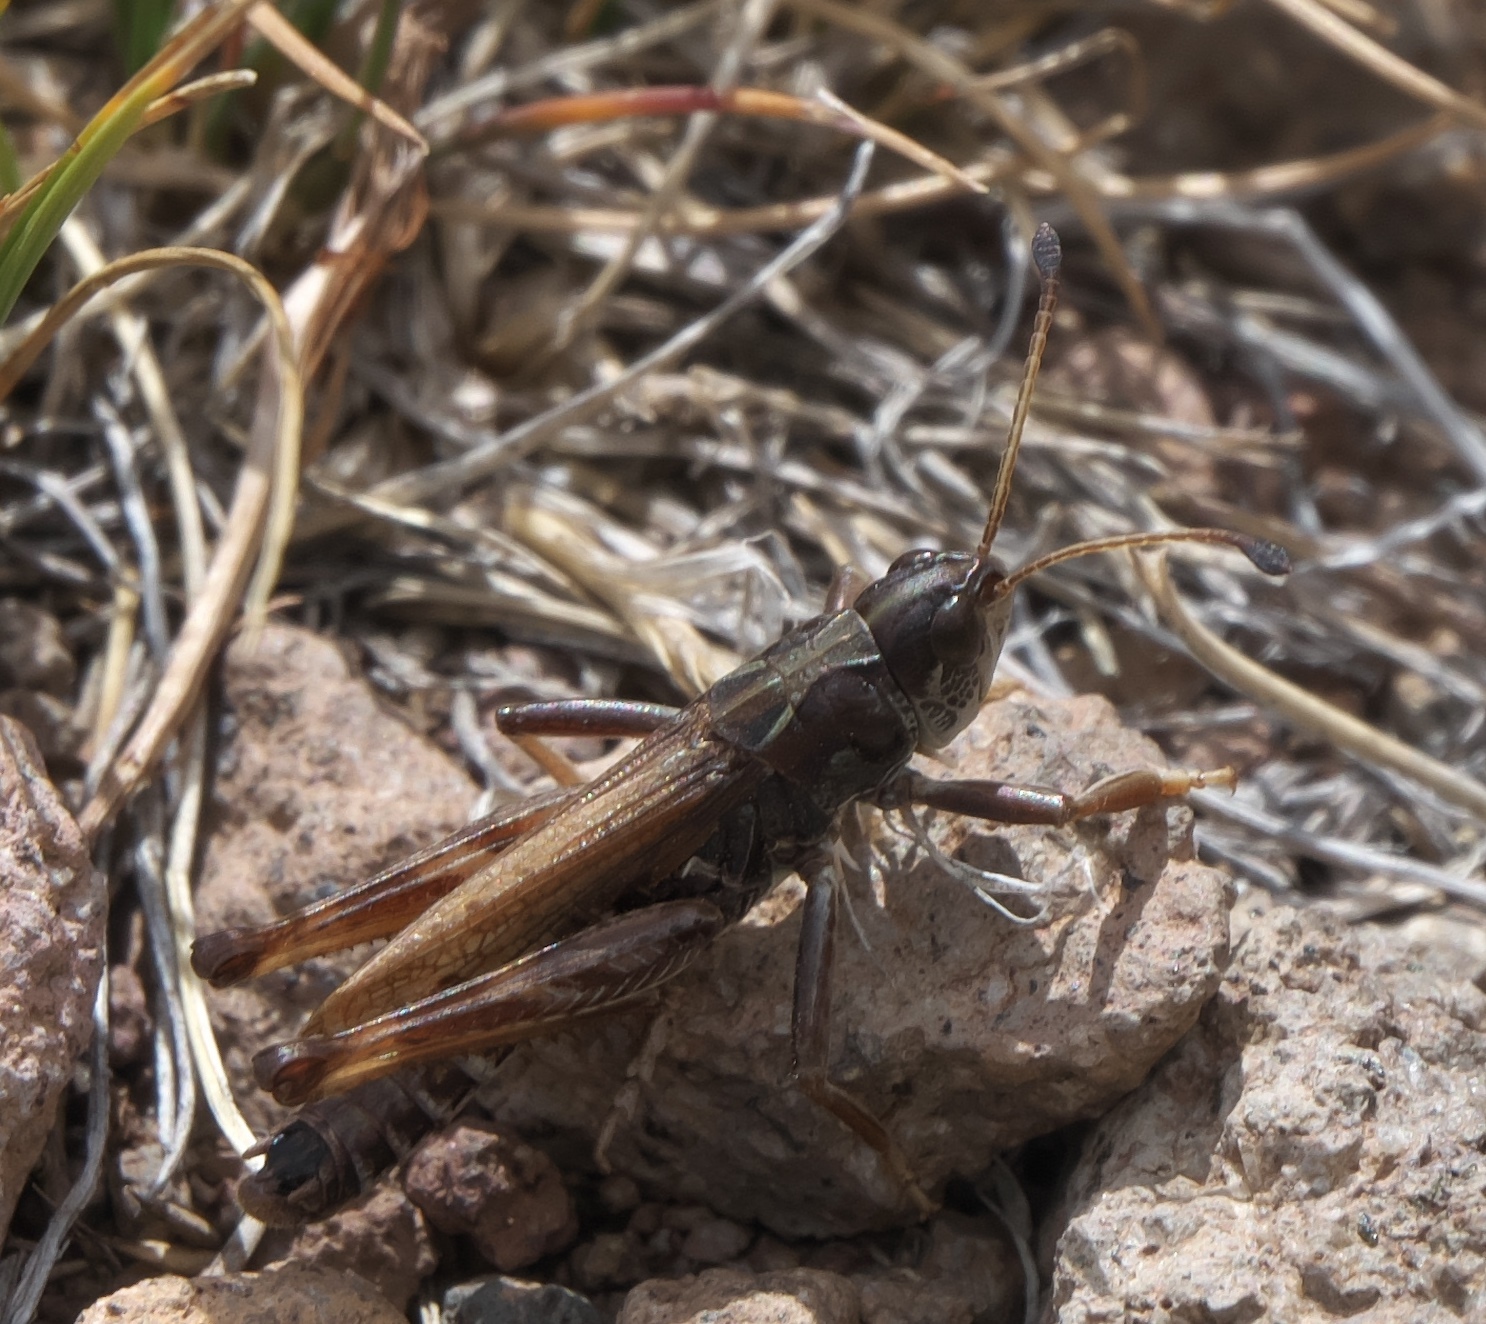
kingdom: Animalia
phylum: Arthropoda
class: Insecta
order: Orthoptera
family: Acrididae
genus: Aeropedellus
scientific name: Aeropedellus clavatus
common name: Clubhorned grasshopper
